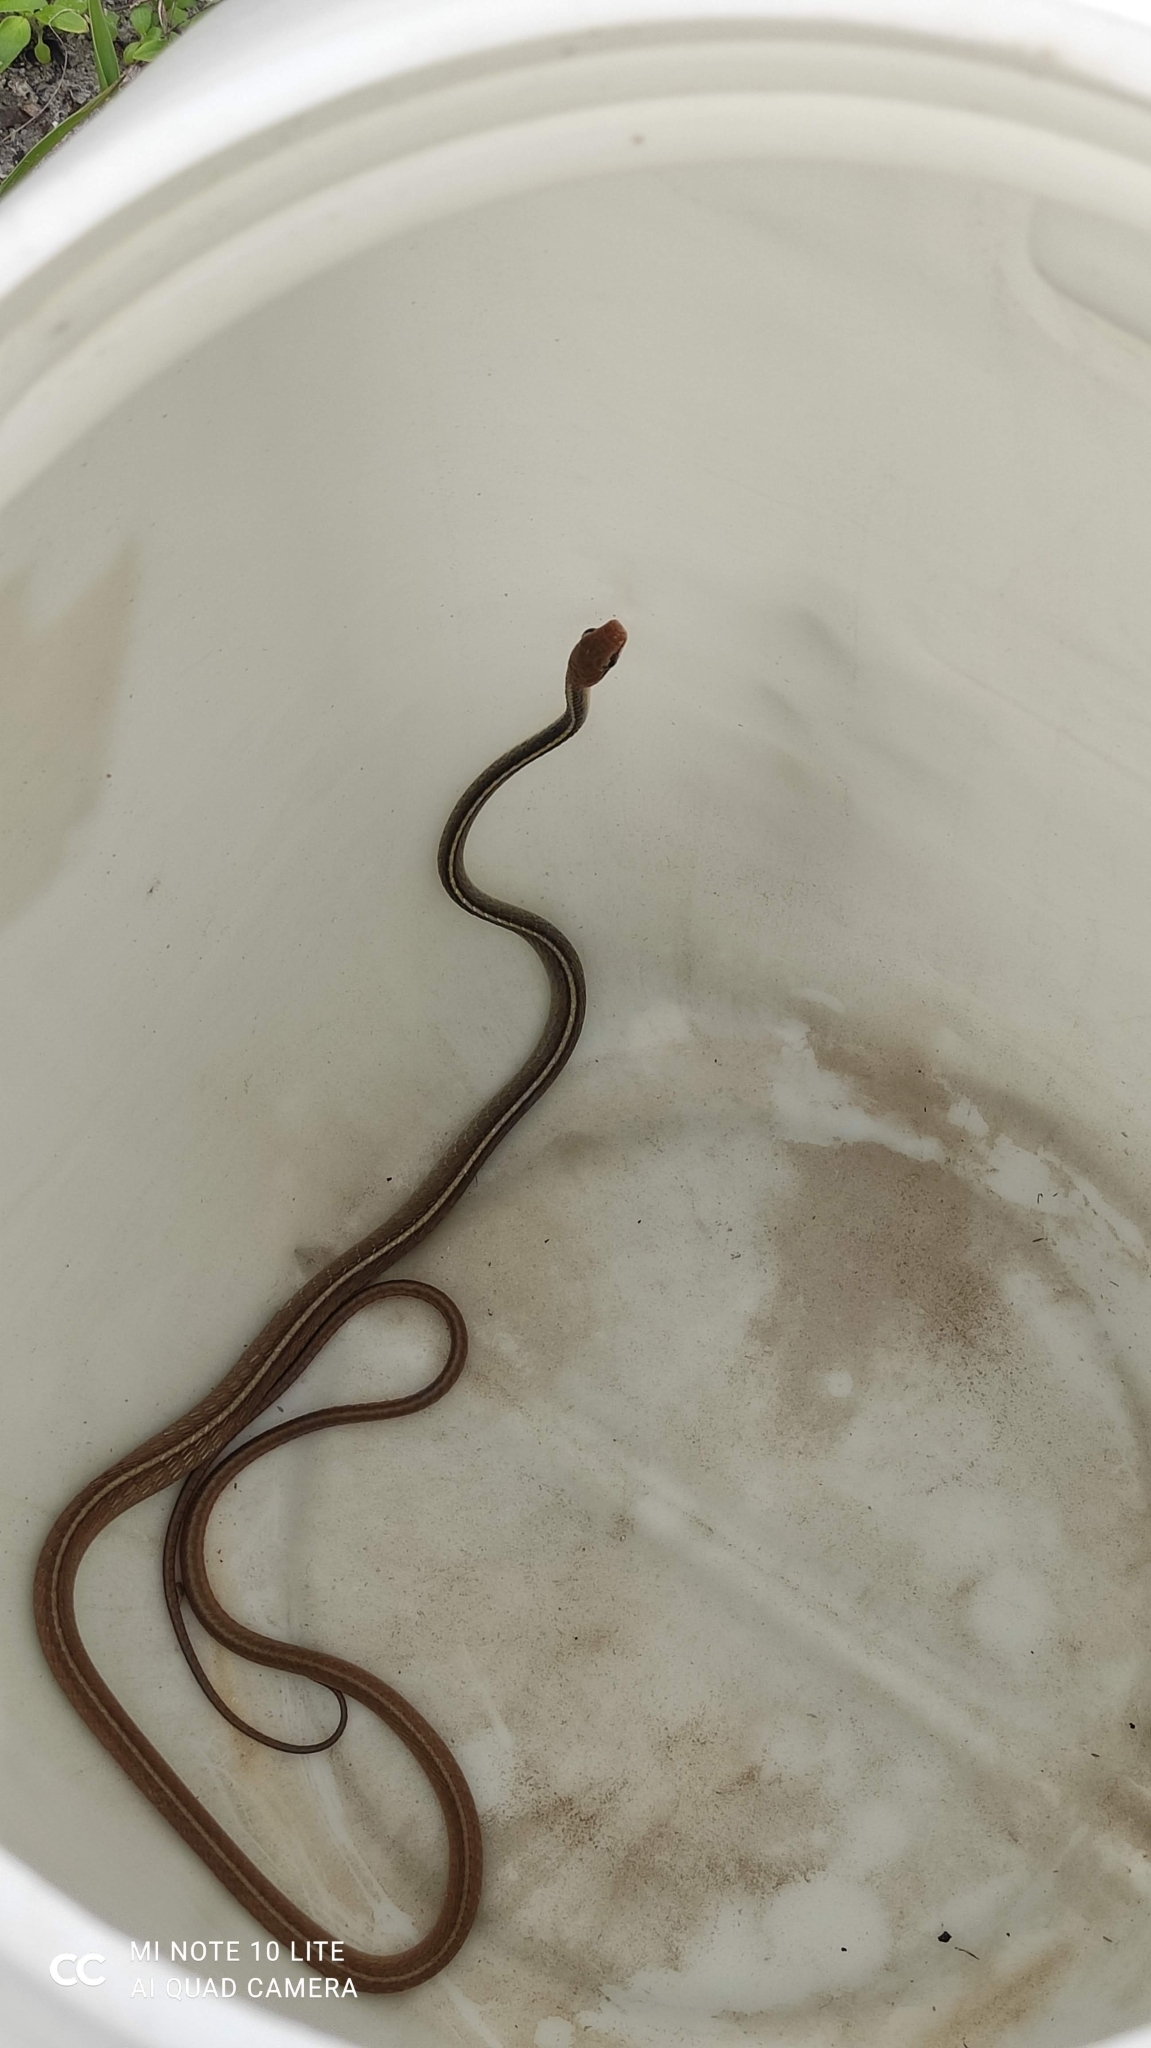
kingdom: Animalia
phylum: Chordata
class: Squamata
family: Colubridae
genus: Chironius
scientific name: Chironius flavolineatus
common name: Boettger's sipo
